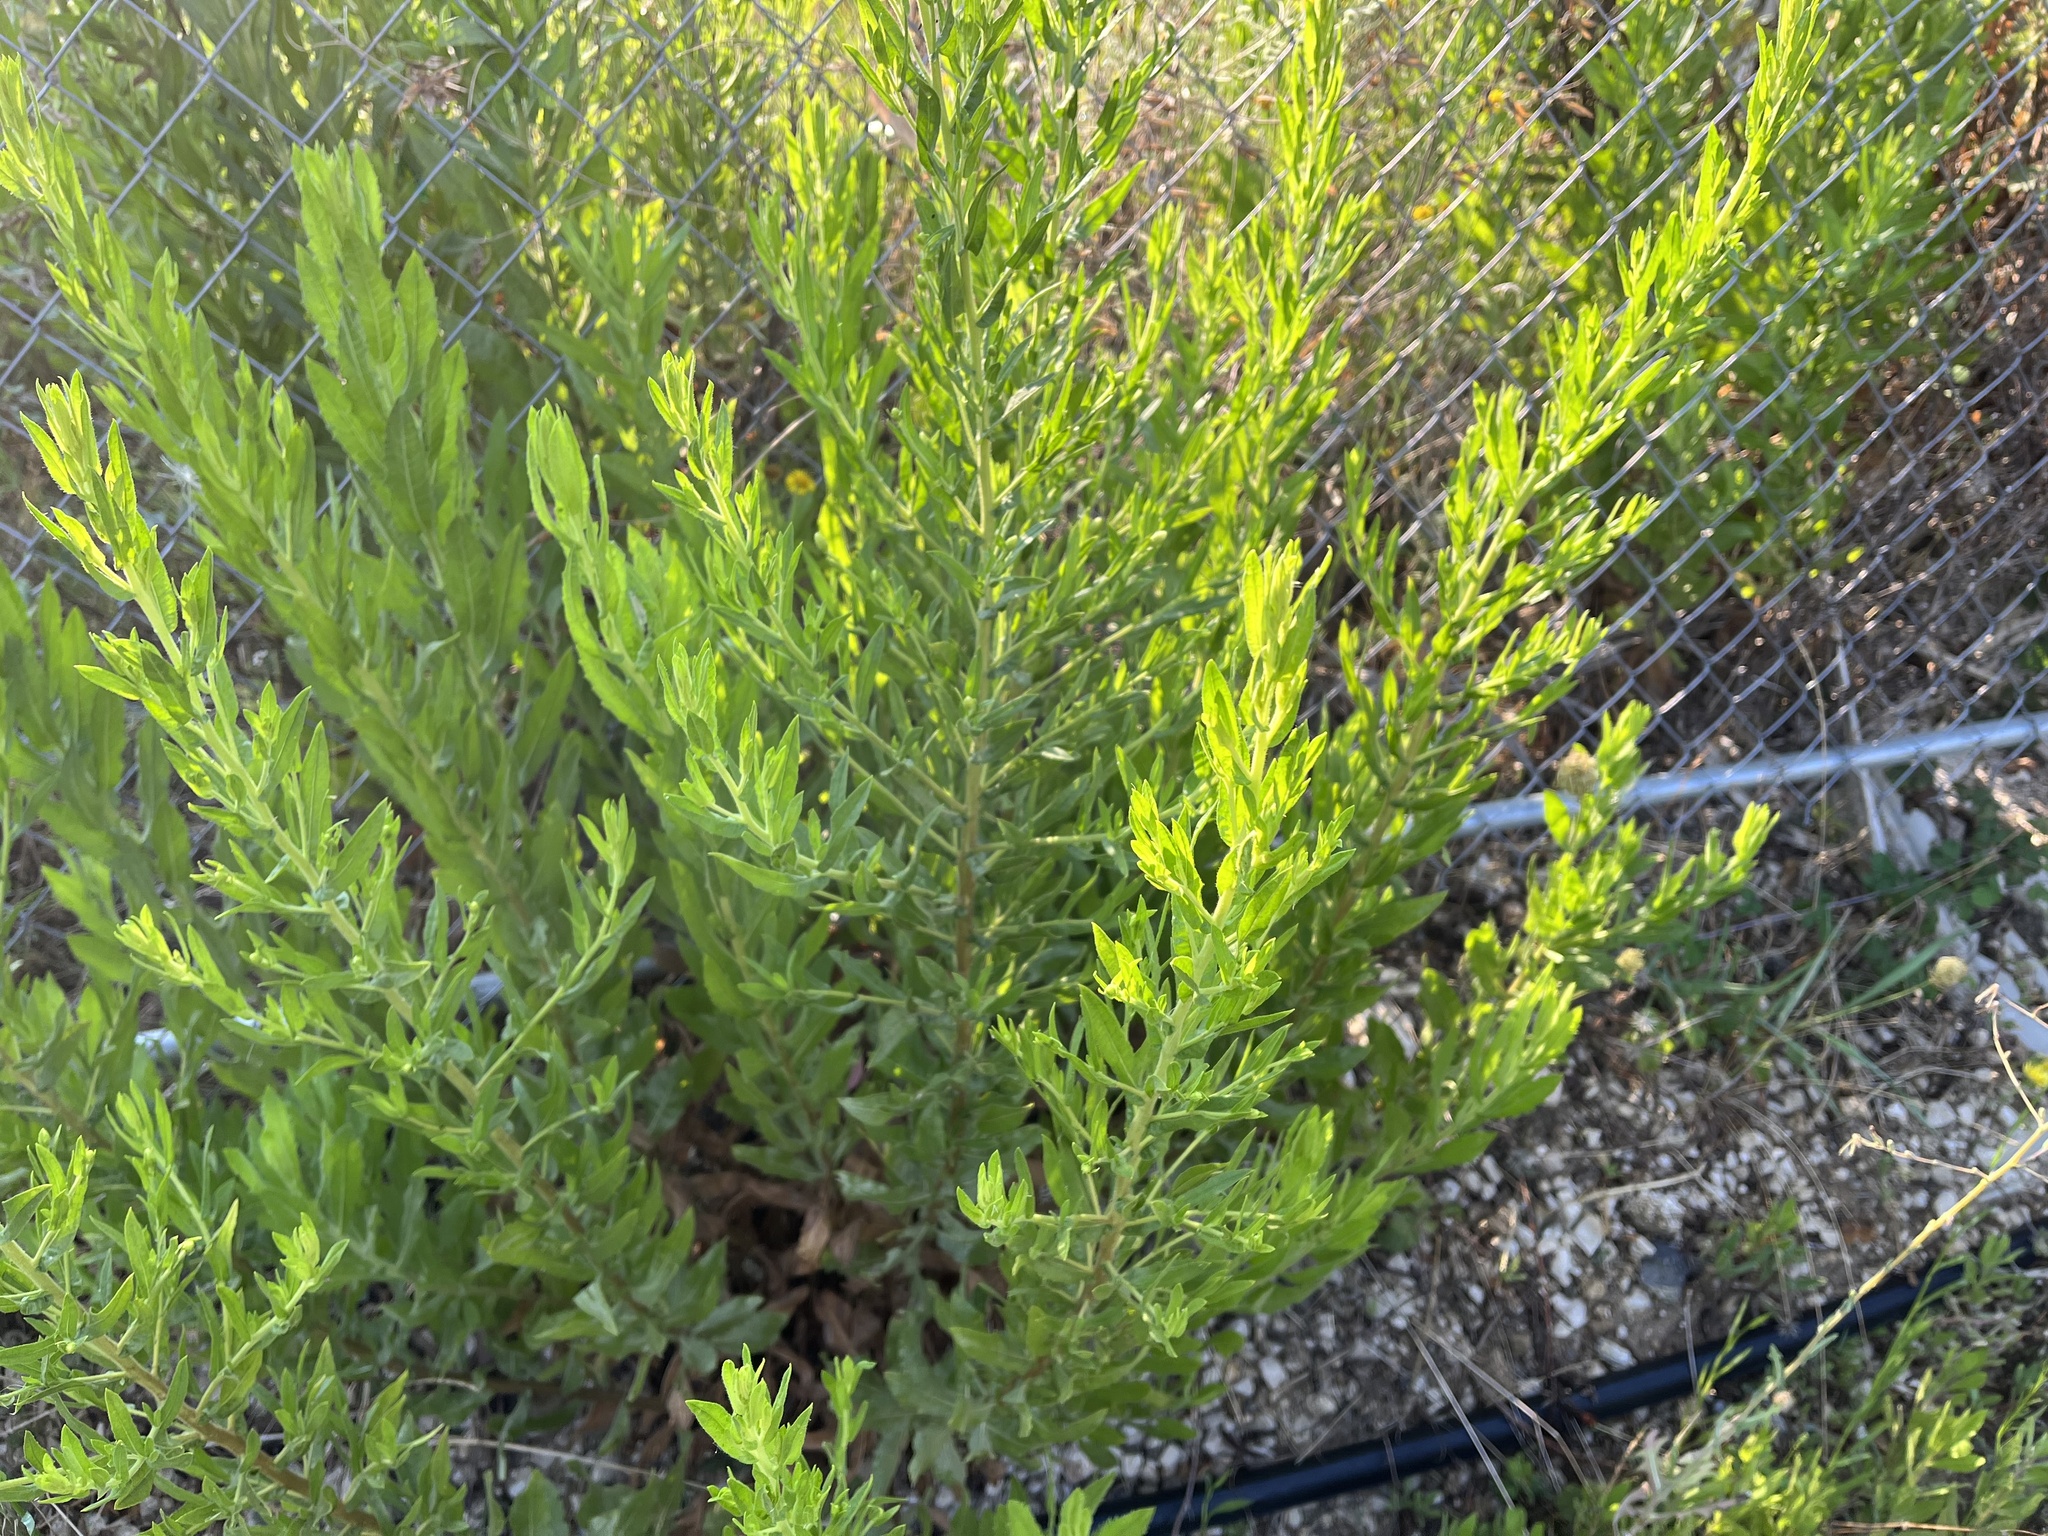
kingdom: Plantae
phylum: Tracheophyta
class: Magnoliopsida
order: Asterales
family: Asteraceae
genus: Dittrichia
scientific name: Dittrichia viscosa
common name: Woody fleabane
